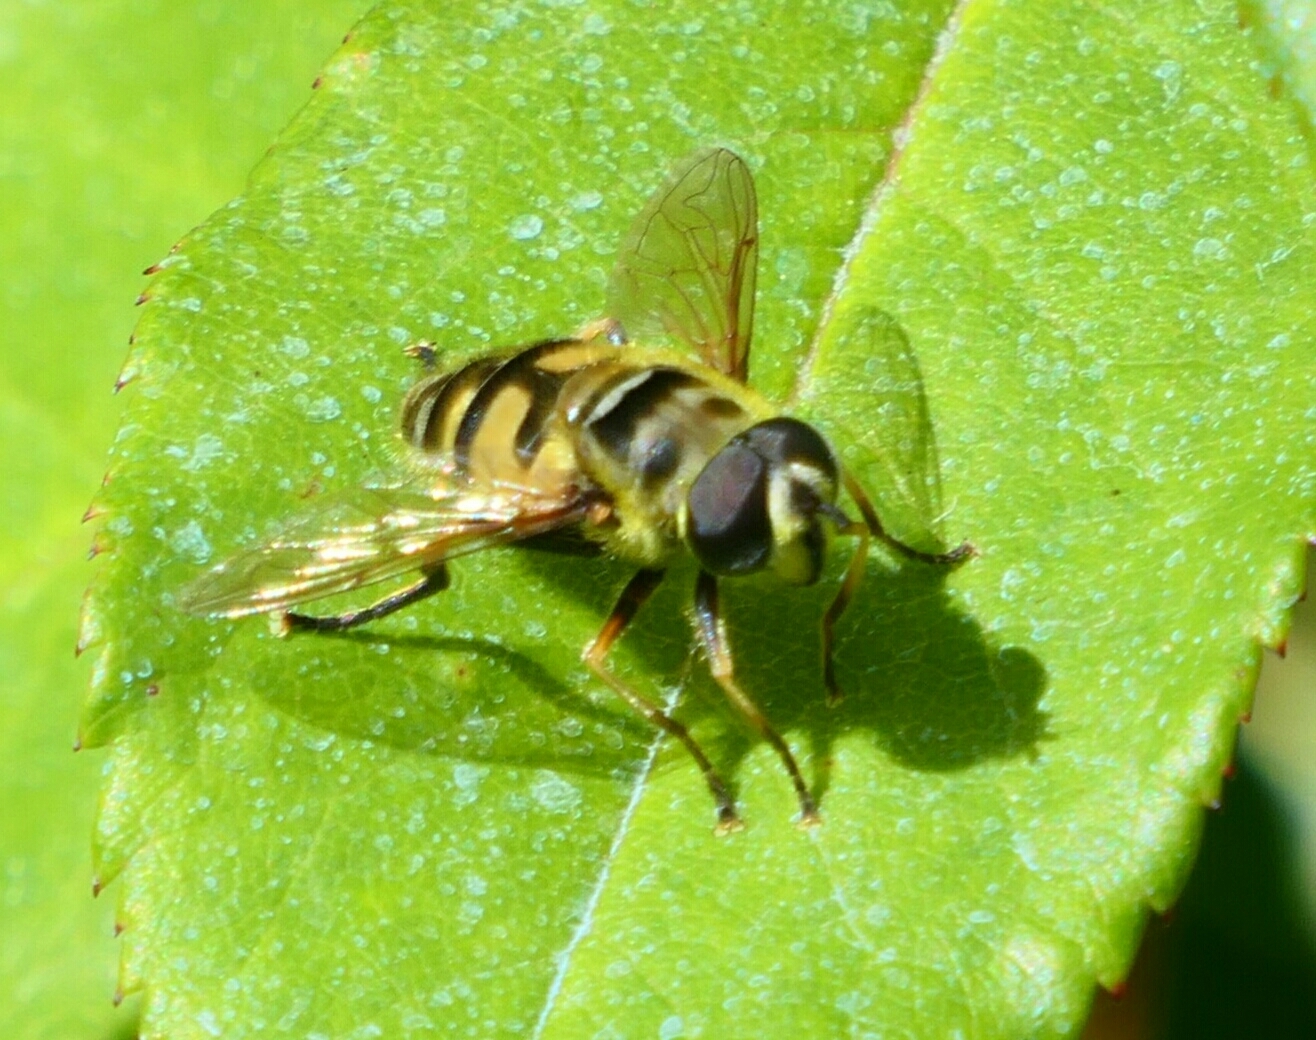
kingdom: Animalia
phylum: Arthropoda
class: Insecta
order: Diptera
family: Syrphidae
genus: Myathropa
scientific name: Myathropa florea
